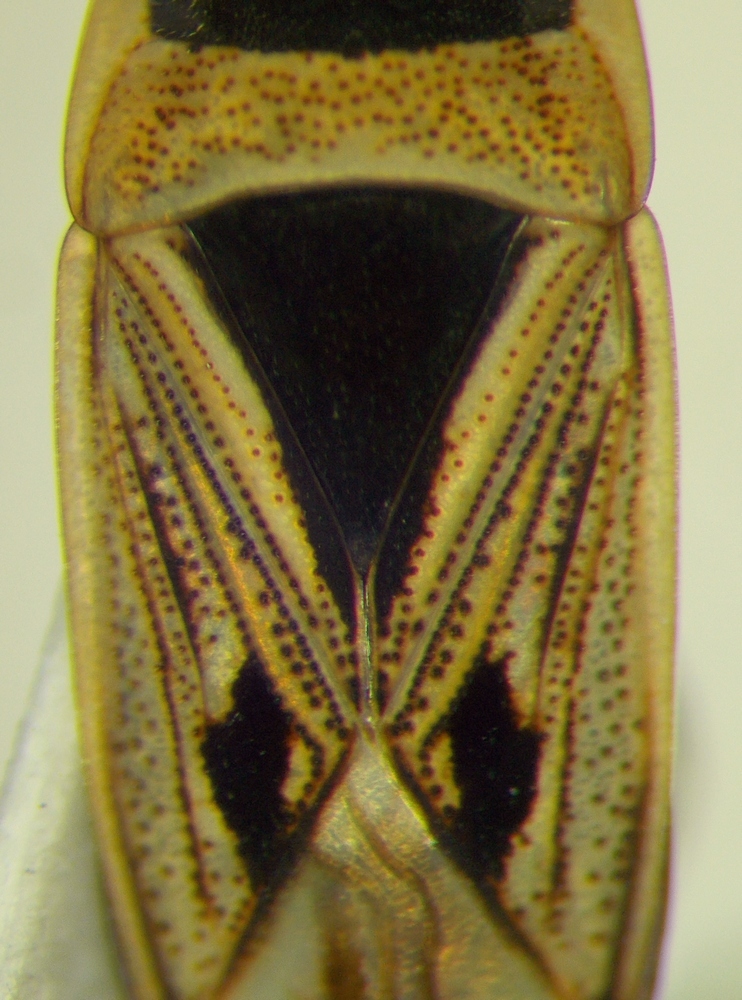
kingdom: Animalia
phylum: Arthropoda
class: Insecta
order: Hemiptera
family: Rhyparochromidae
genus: Xanthochilus
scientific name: Xanthochilus quadratus
